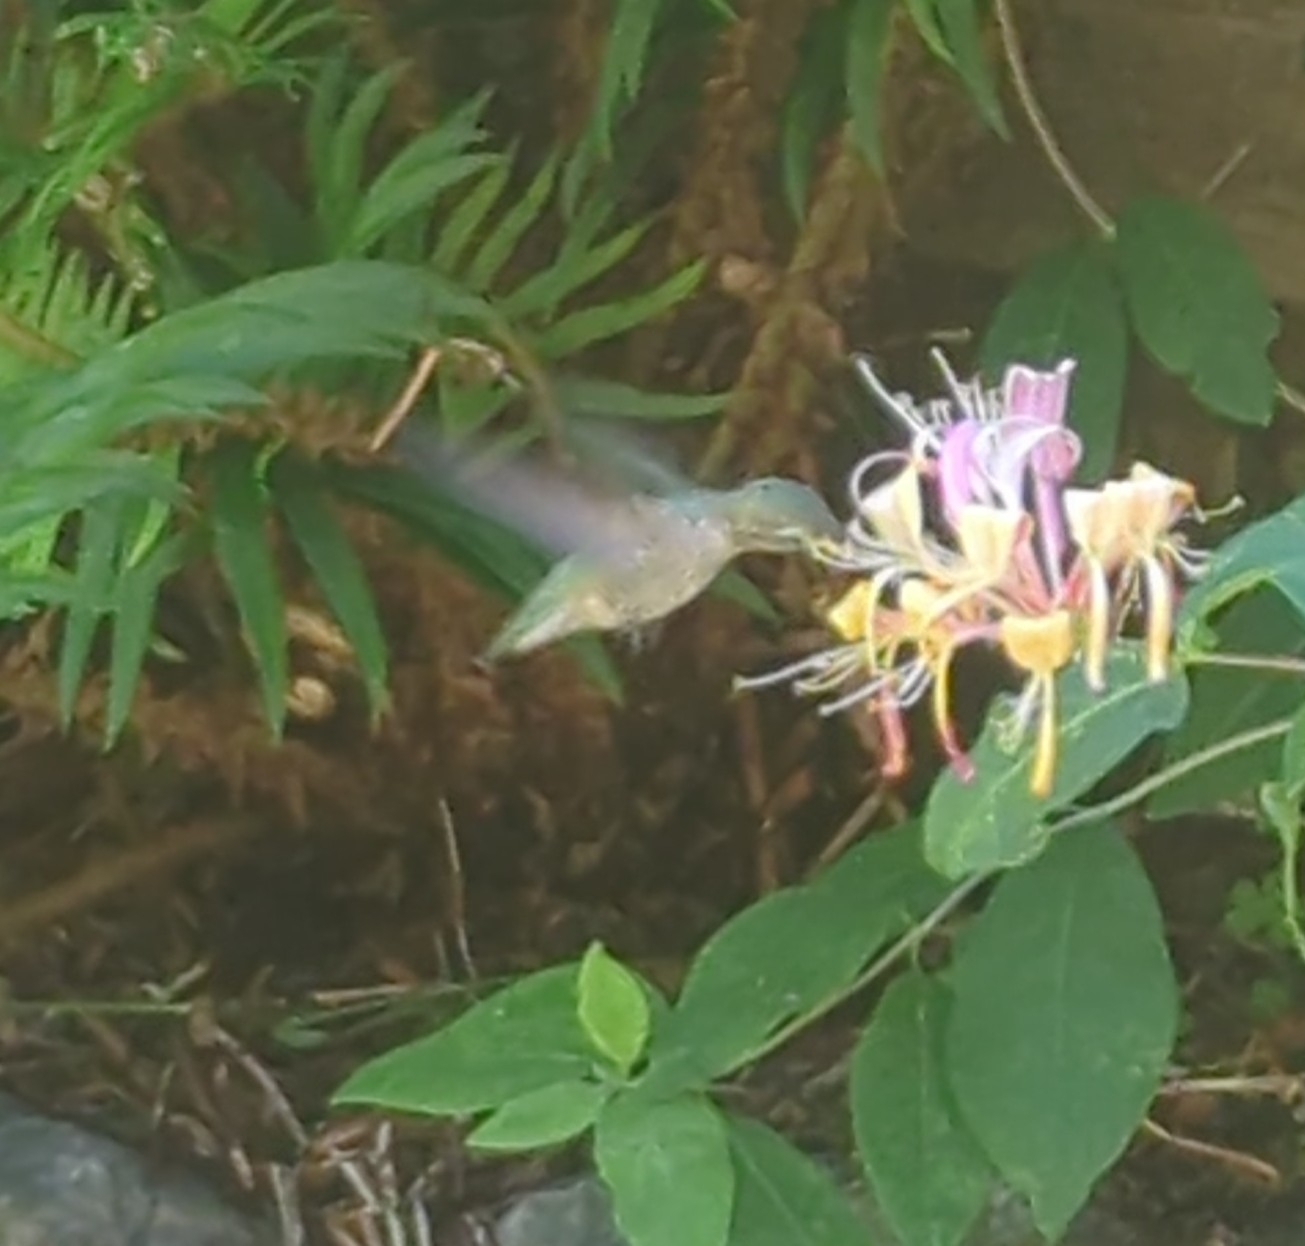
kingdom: Animalia
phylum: Chordata
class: Aves
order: Apodiformes
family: Trochilidae
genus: Calypte
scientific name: Calypte anna
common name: Anna's hummingbird
